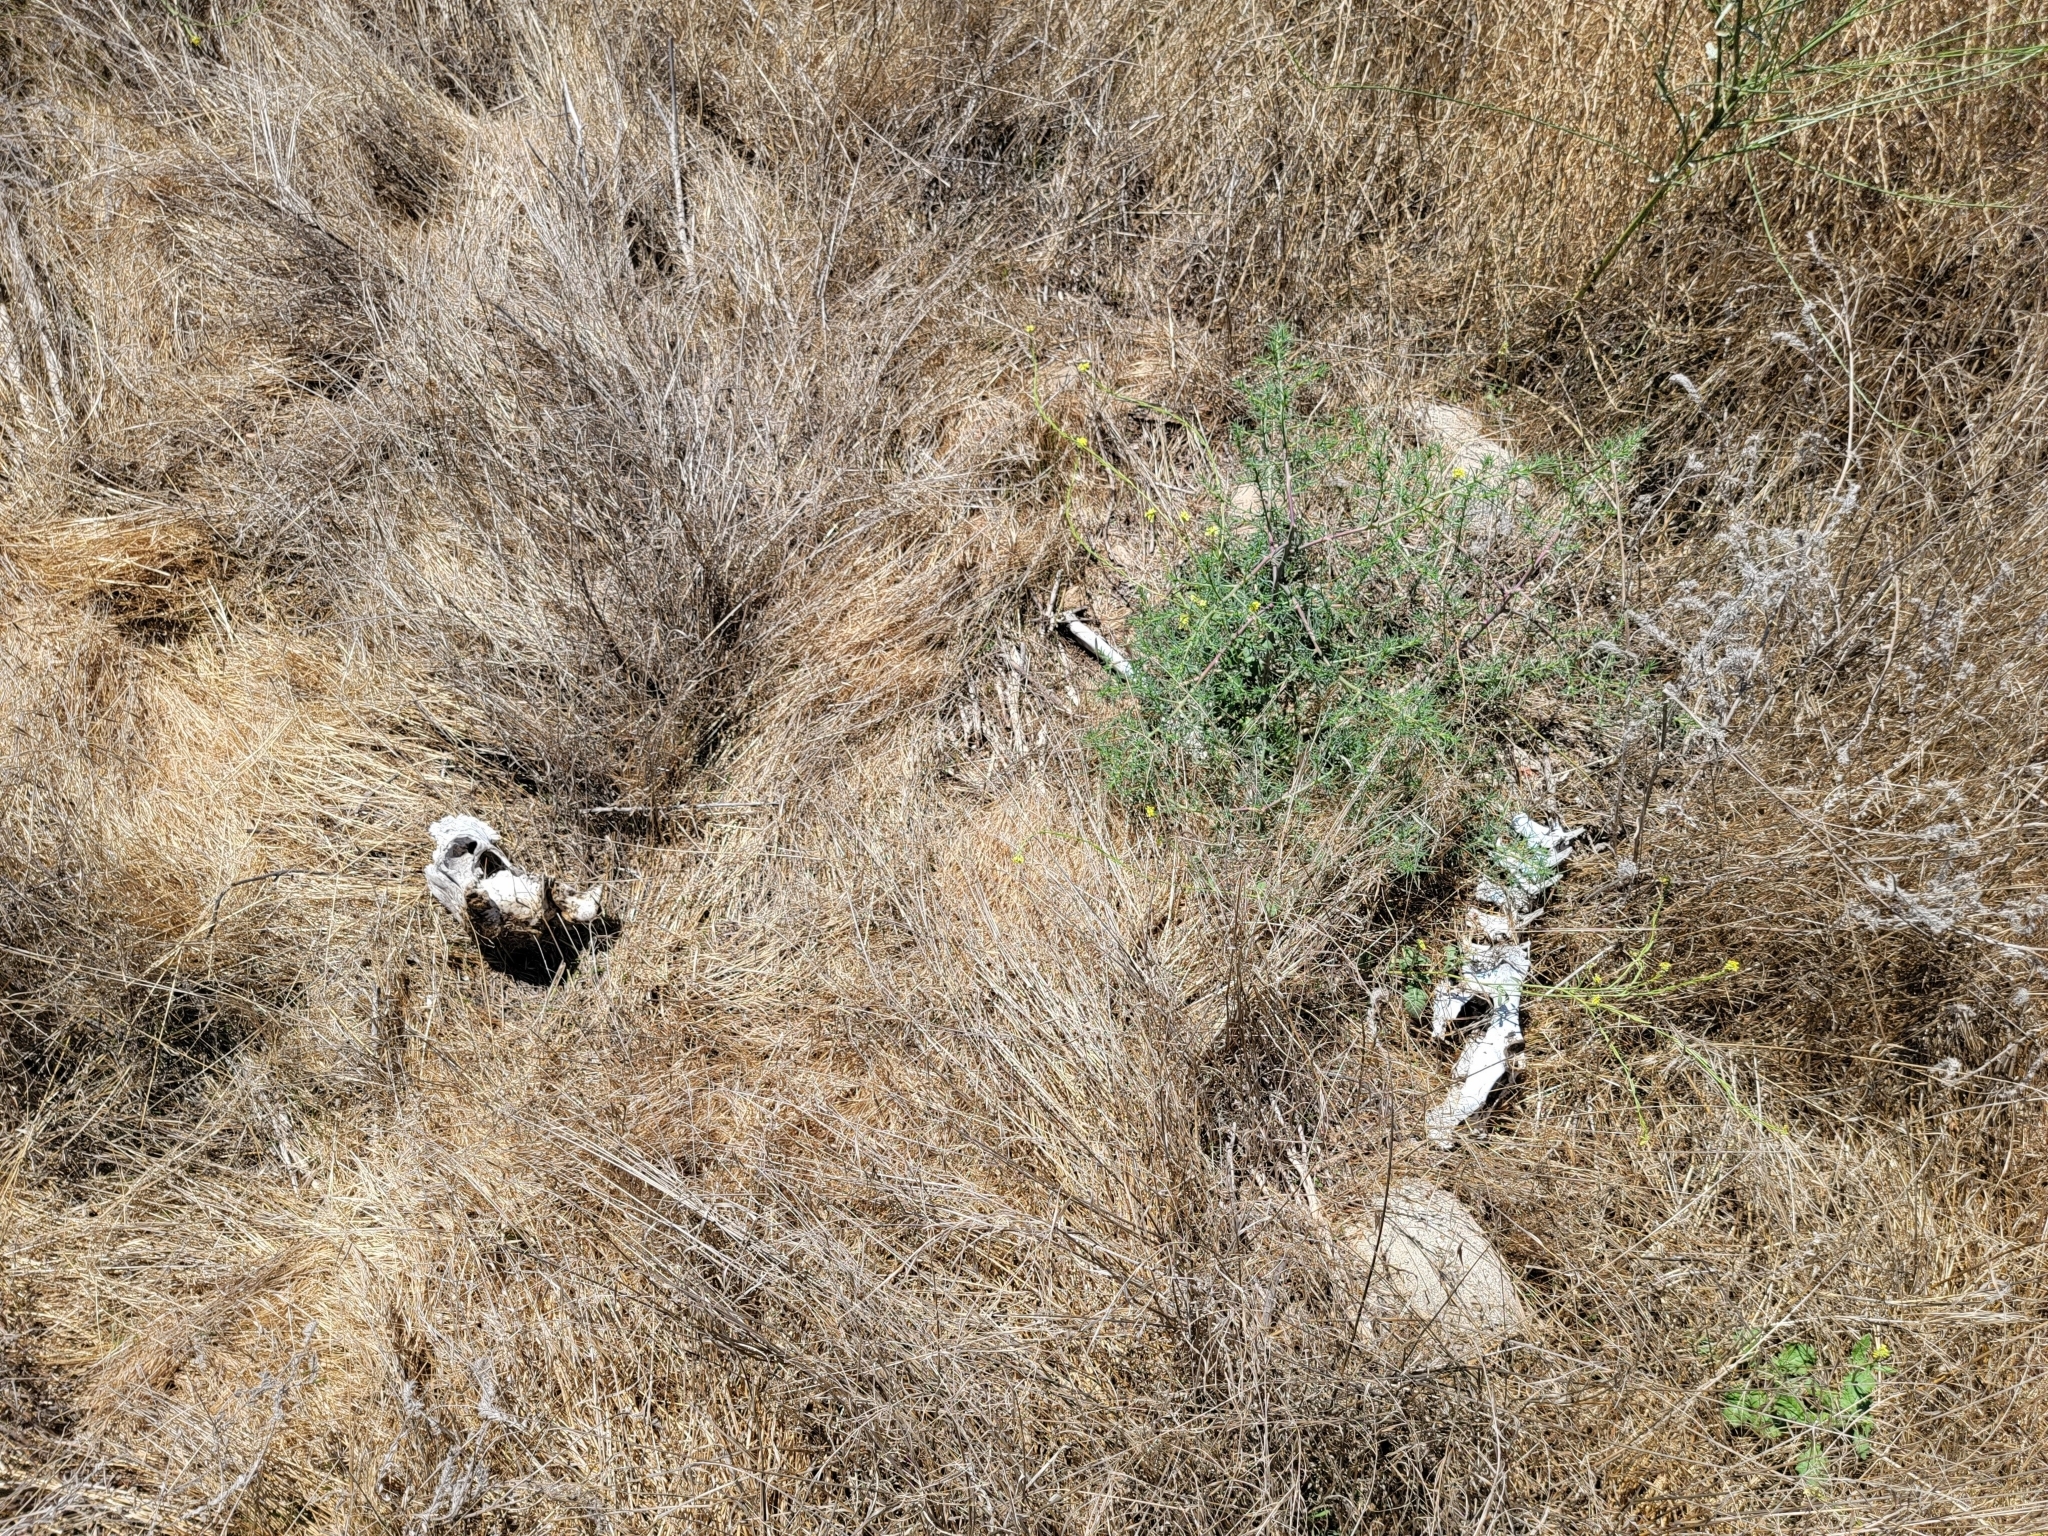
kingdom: Animalia
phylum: Chordata
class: Mammalia
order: Artiodactyla
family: Cervidae
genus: Odocoileus
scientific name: Odocoileus hemionus
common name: Mule deer
